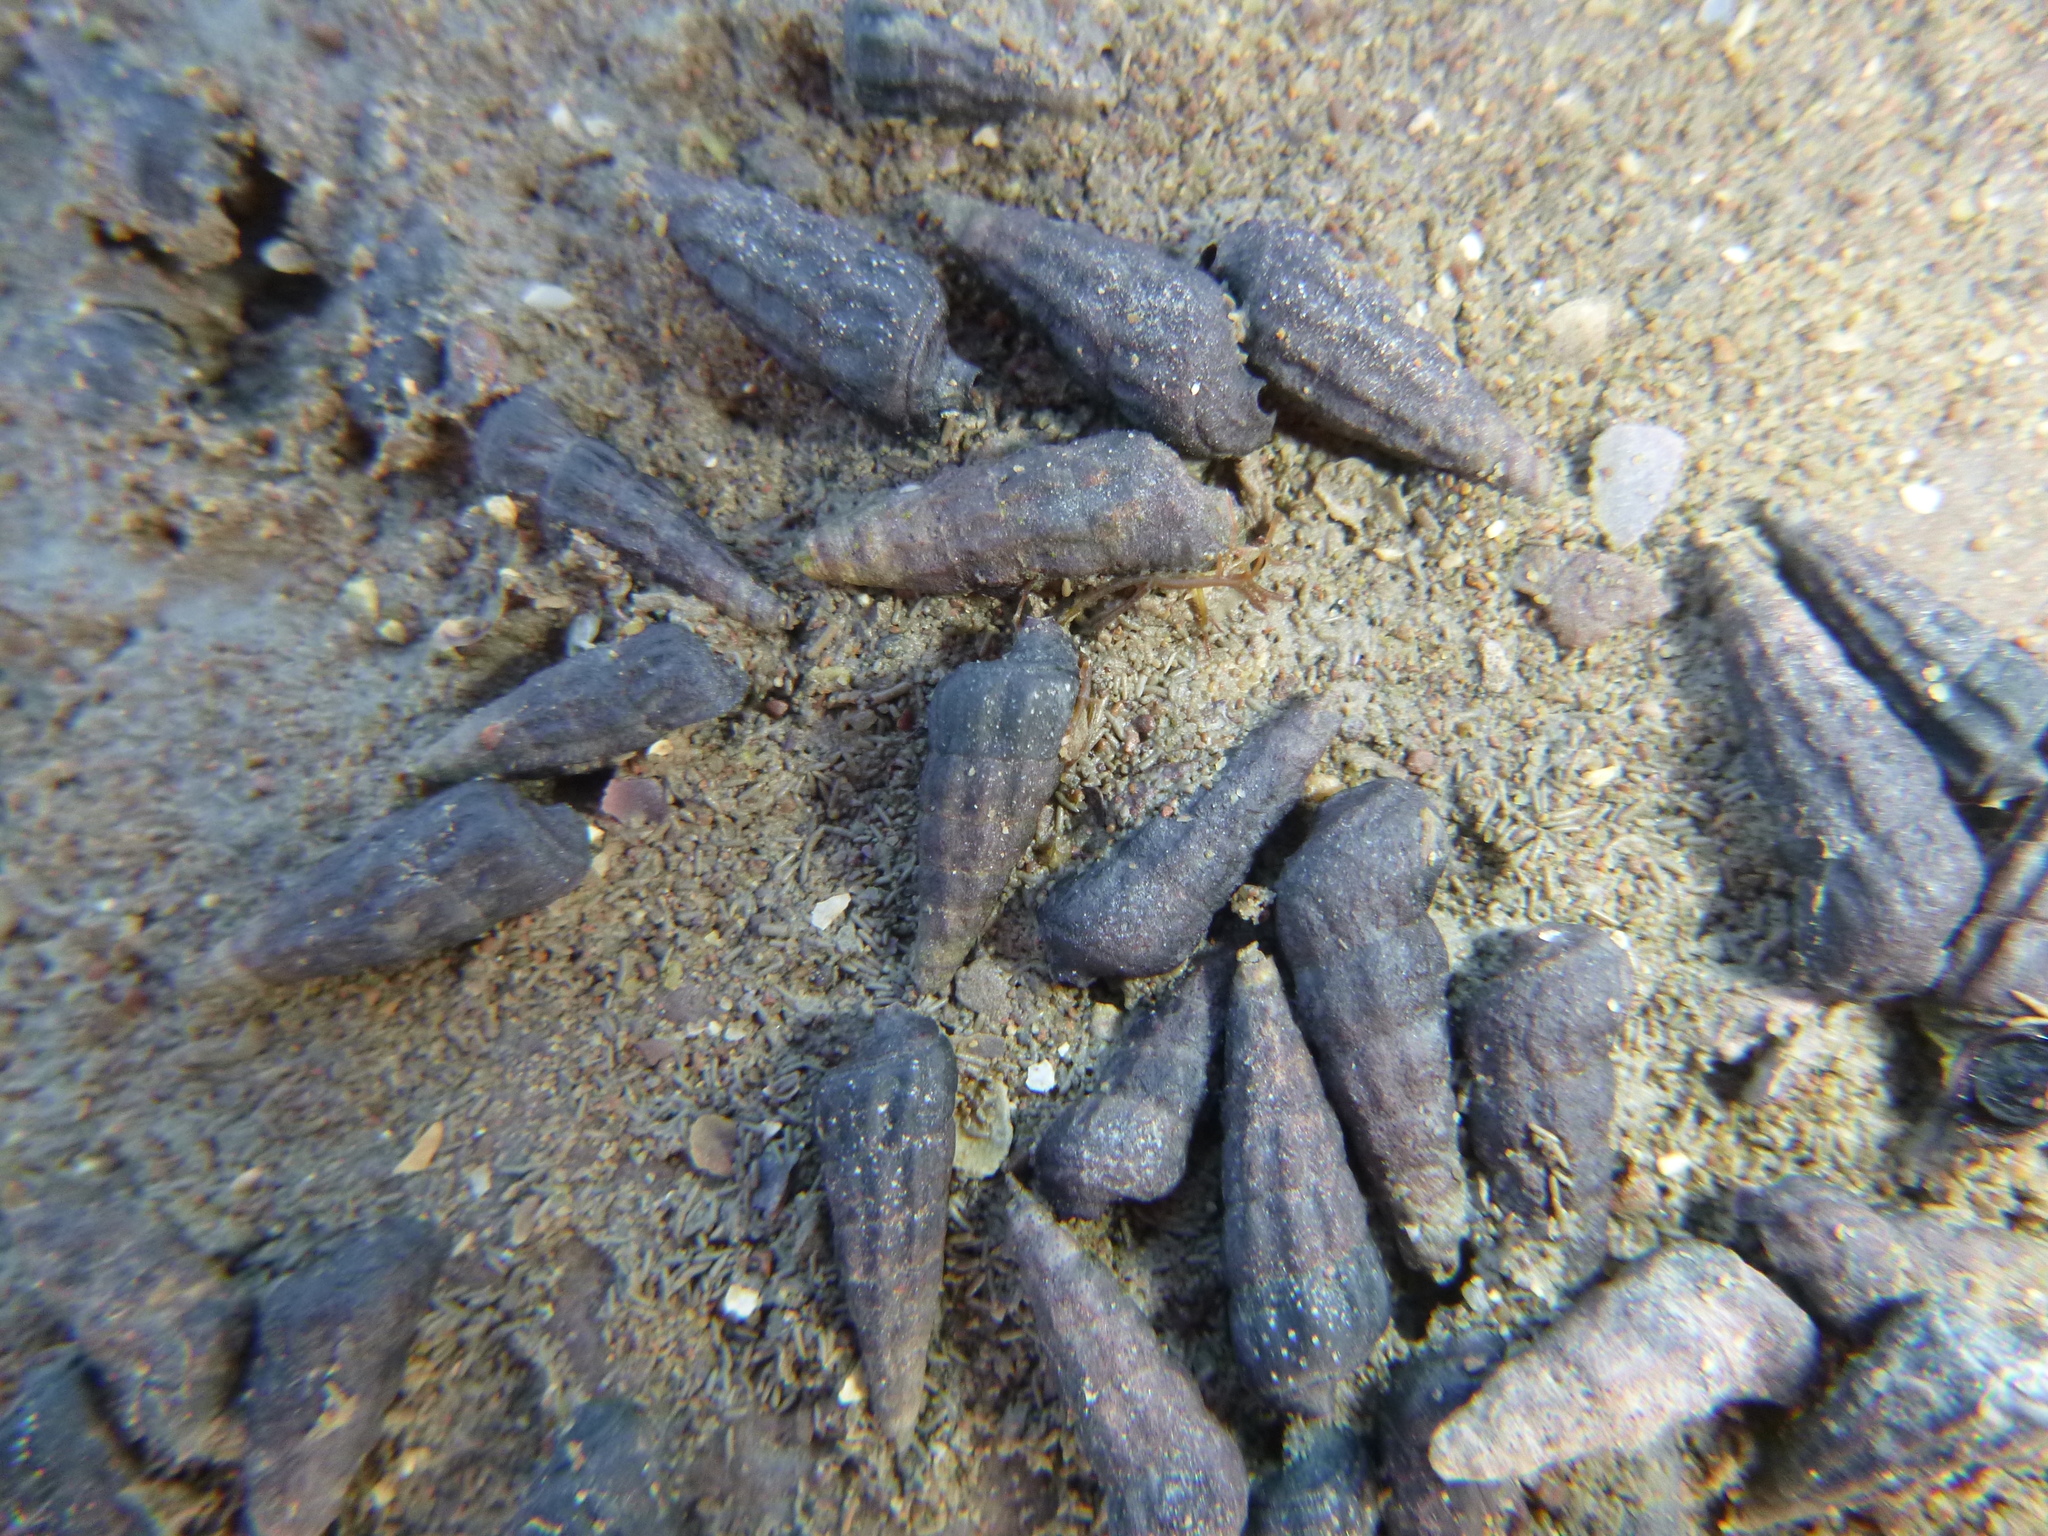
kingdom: Animalia
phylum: Mollusca
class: Gastropoda
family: Batillariidae
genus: Zeacumantus
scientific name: Zeacumantus subcarinatus
